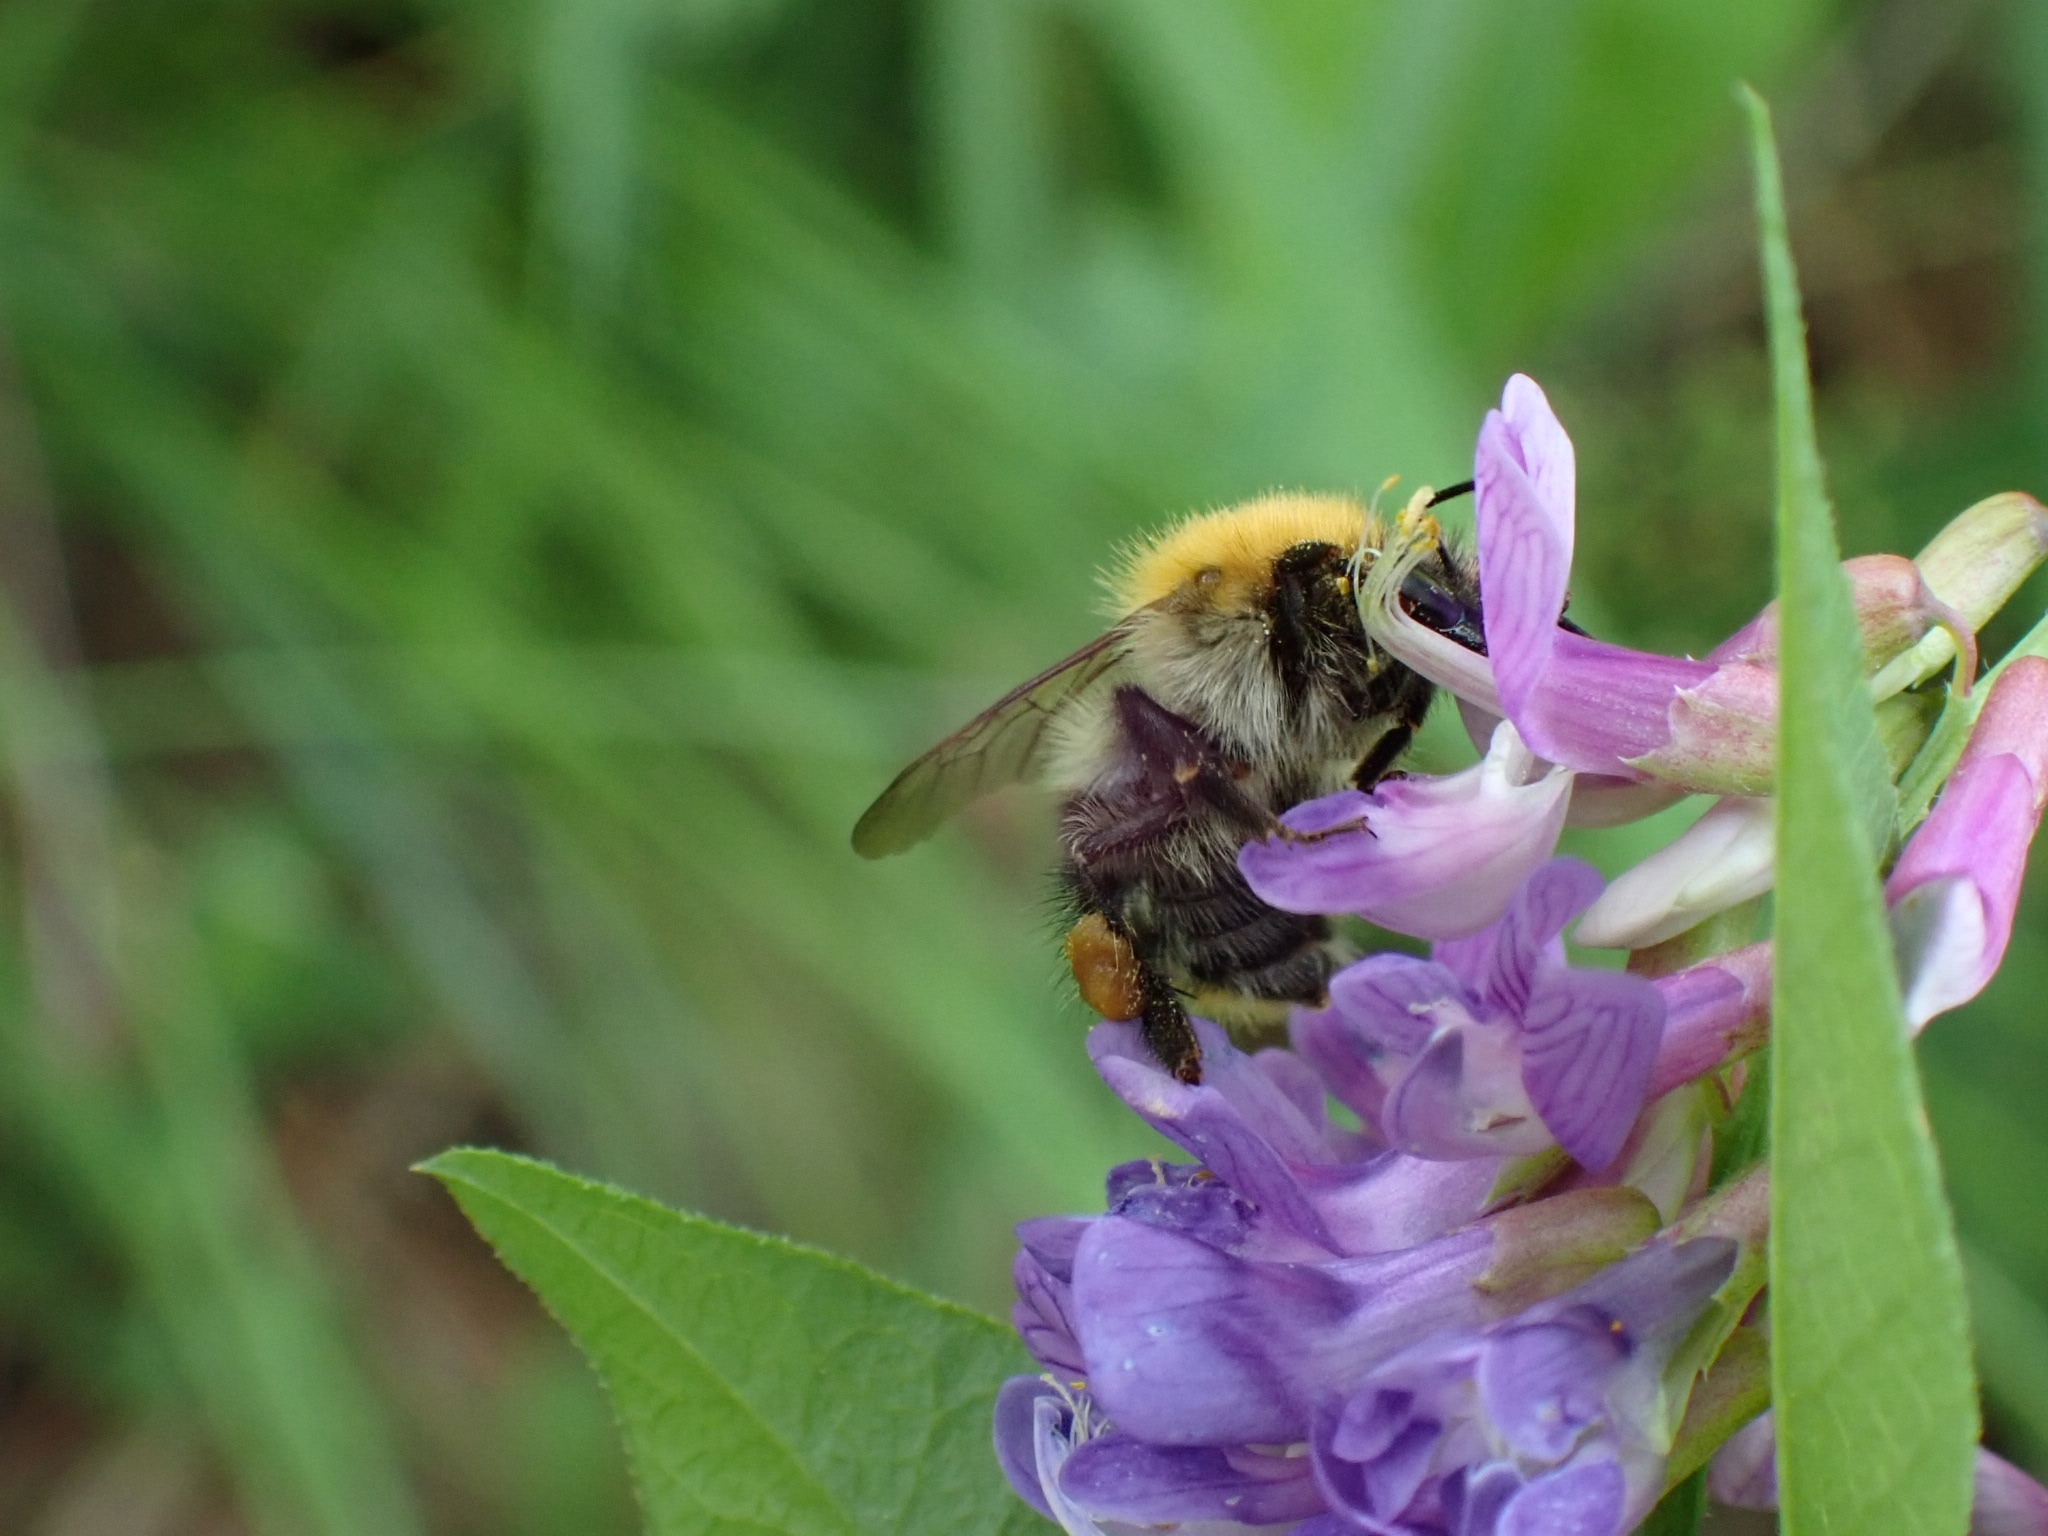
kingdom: Animalia
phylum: Arthropoda
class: Insecta
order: Hymenoptera
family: Apidae
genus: Bombus
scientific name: Bombus pascuorum
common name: Common carder bee
